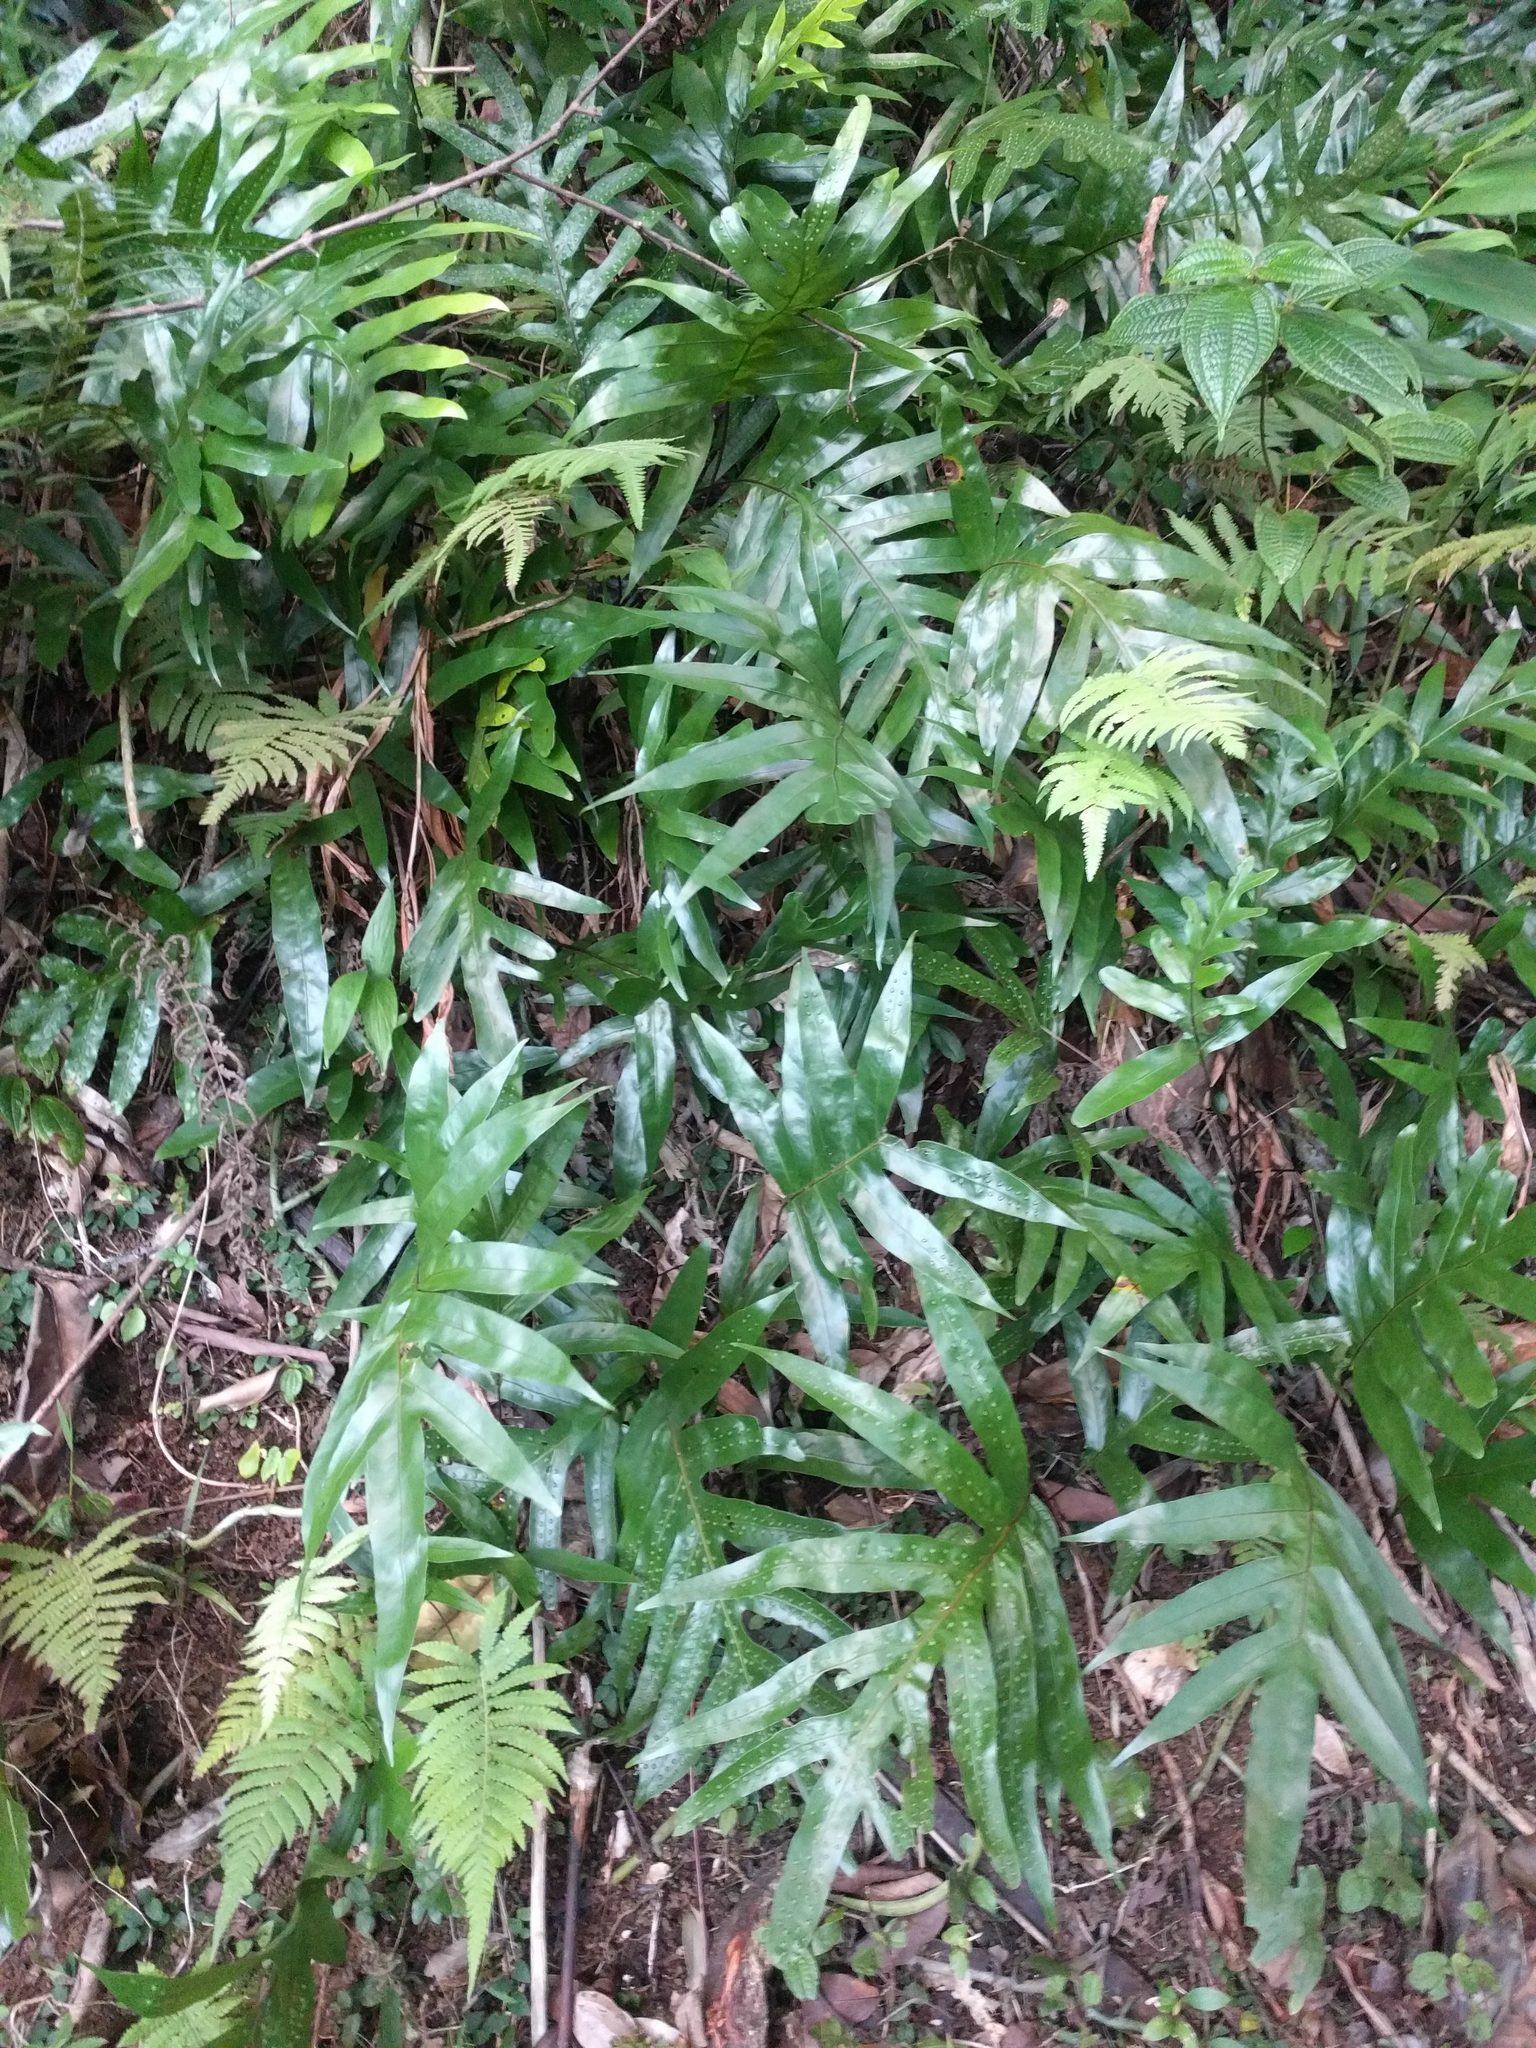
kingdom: Plantae
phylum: Tracheophyta
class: Polypodiopsida
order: Polypodiales
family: Polypodiaceae
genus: Microsorum
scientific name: Microsorum grossum
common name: Musk fern
